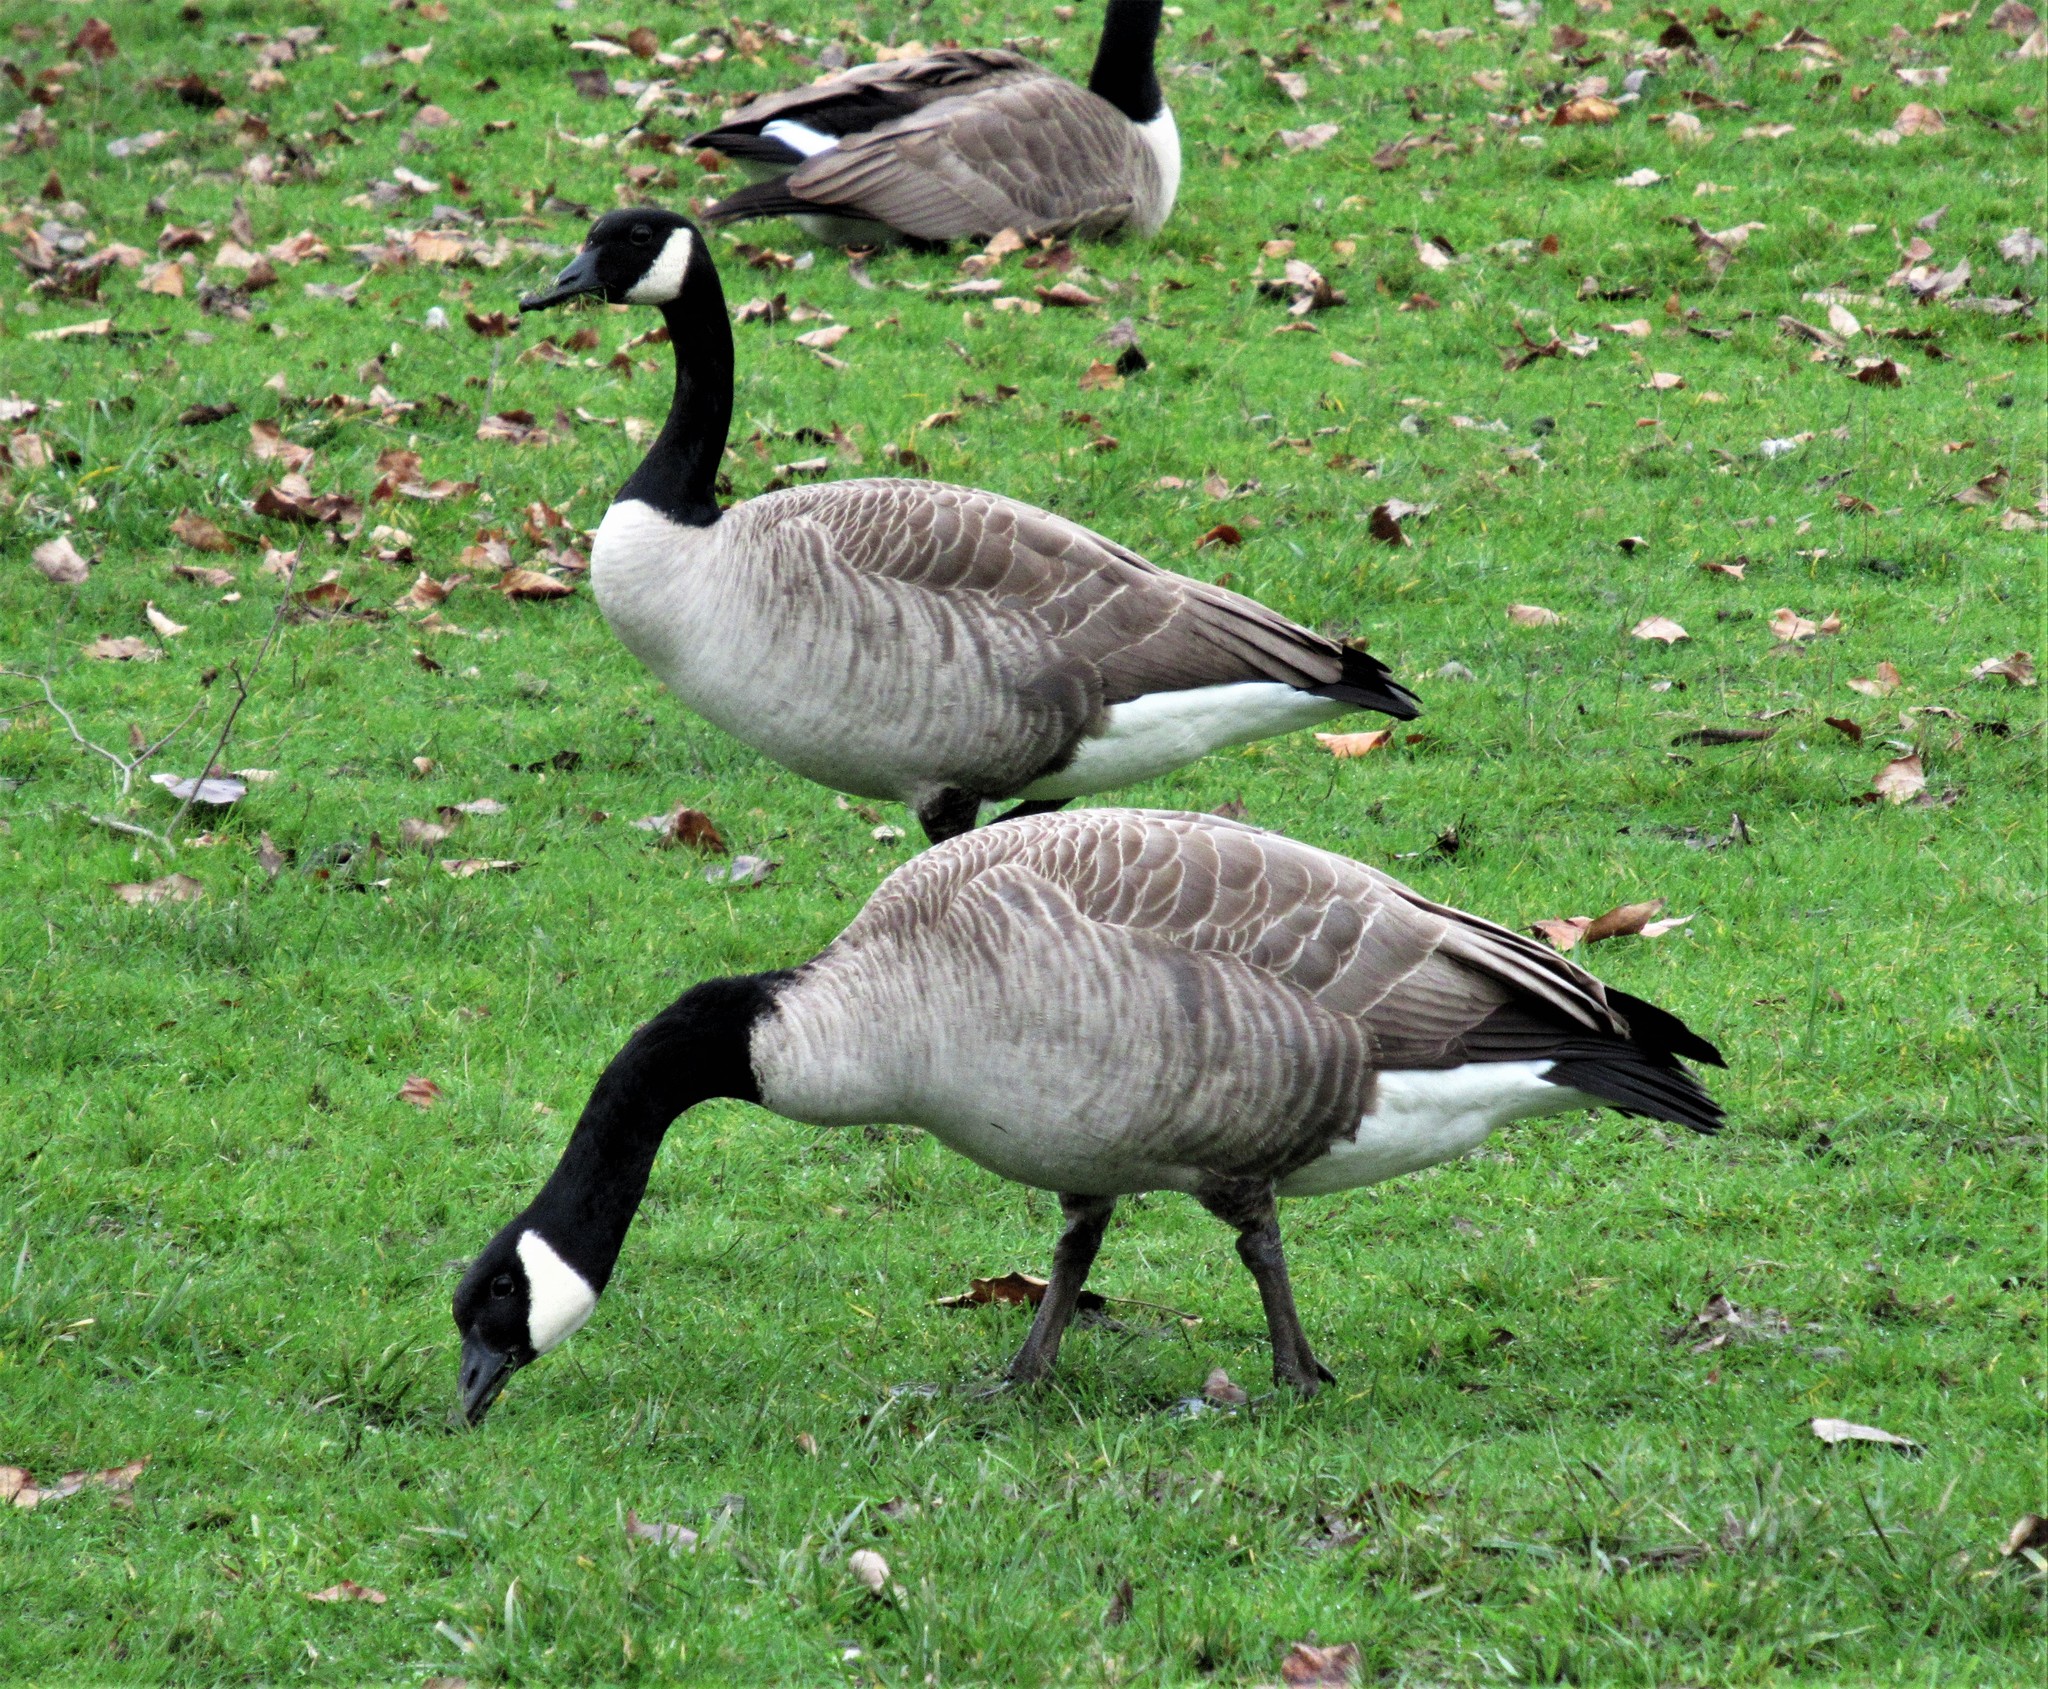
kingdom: Animalia
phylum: Chordata
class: Aves
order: Anseriformes
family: Anatidae
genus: Branta
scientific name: Branta canadensis
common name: Canada goose
